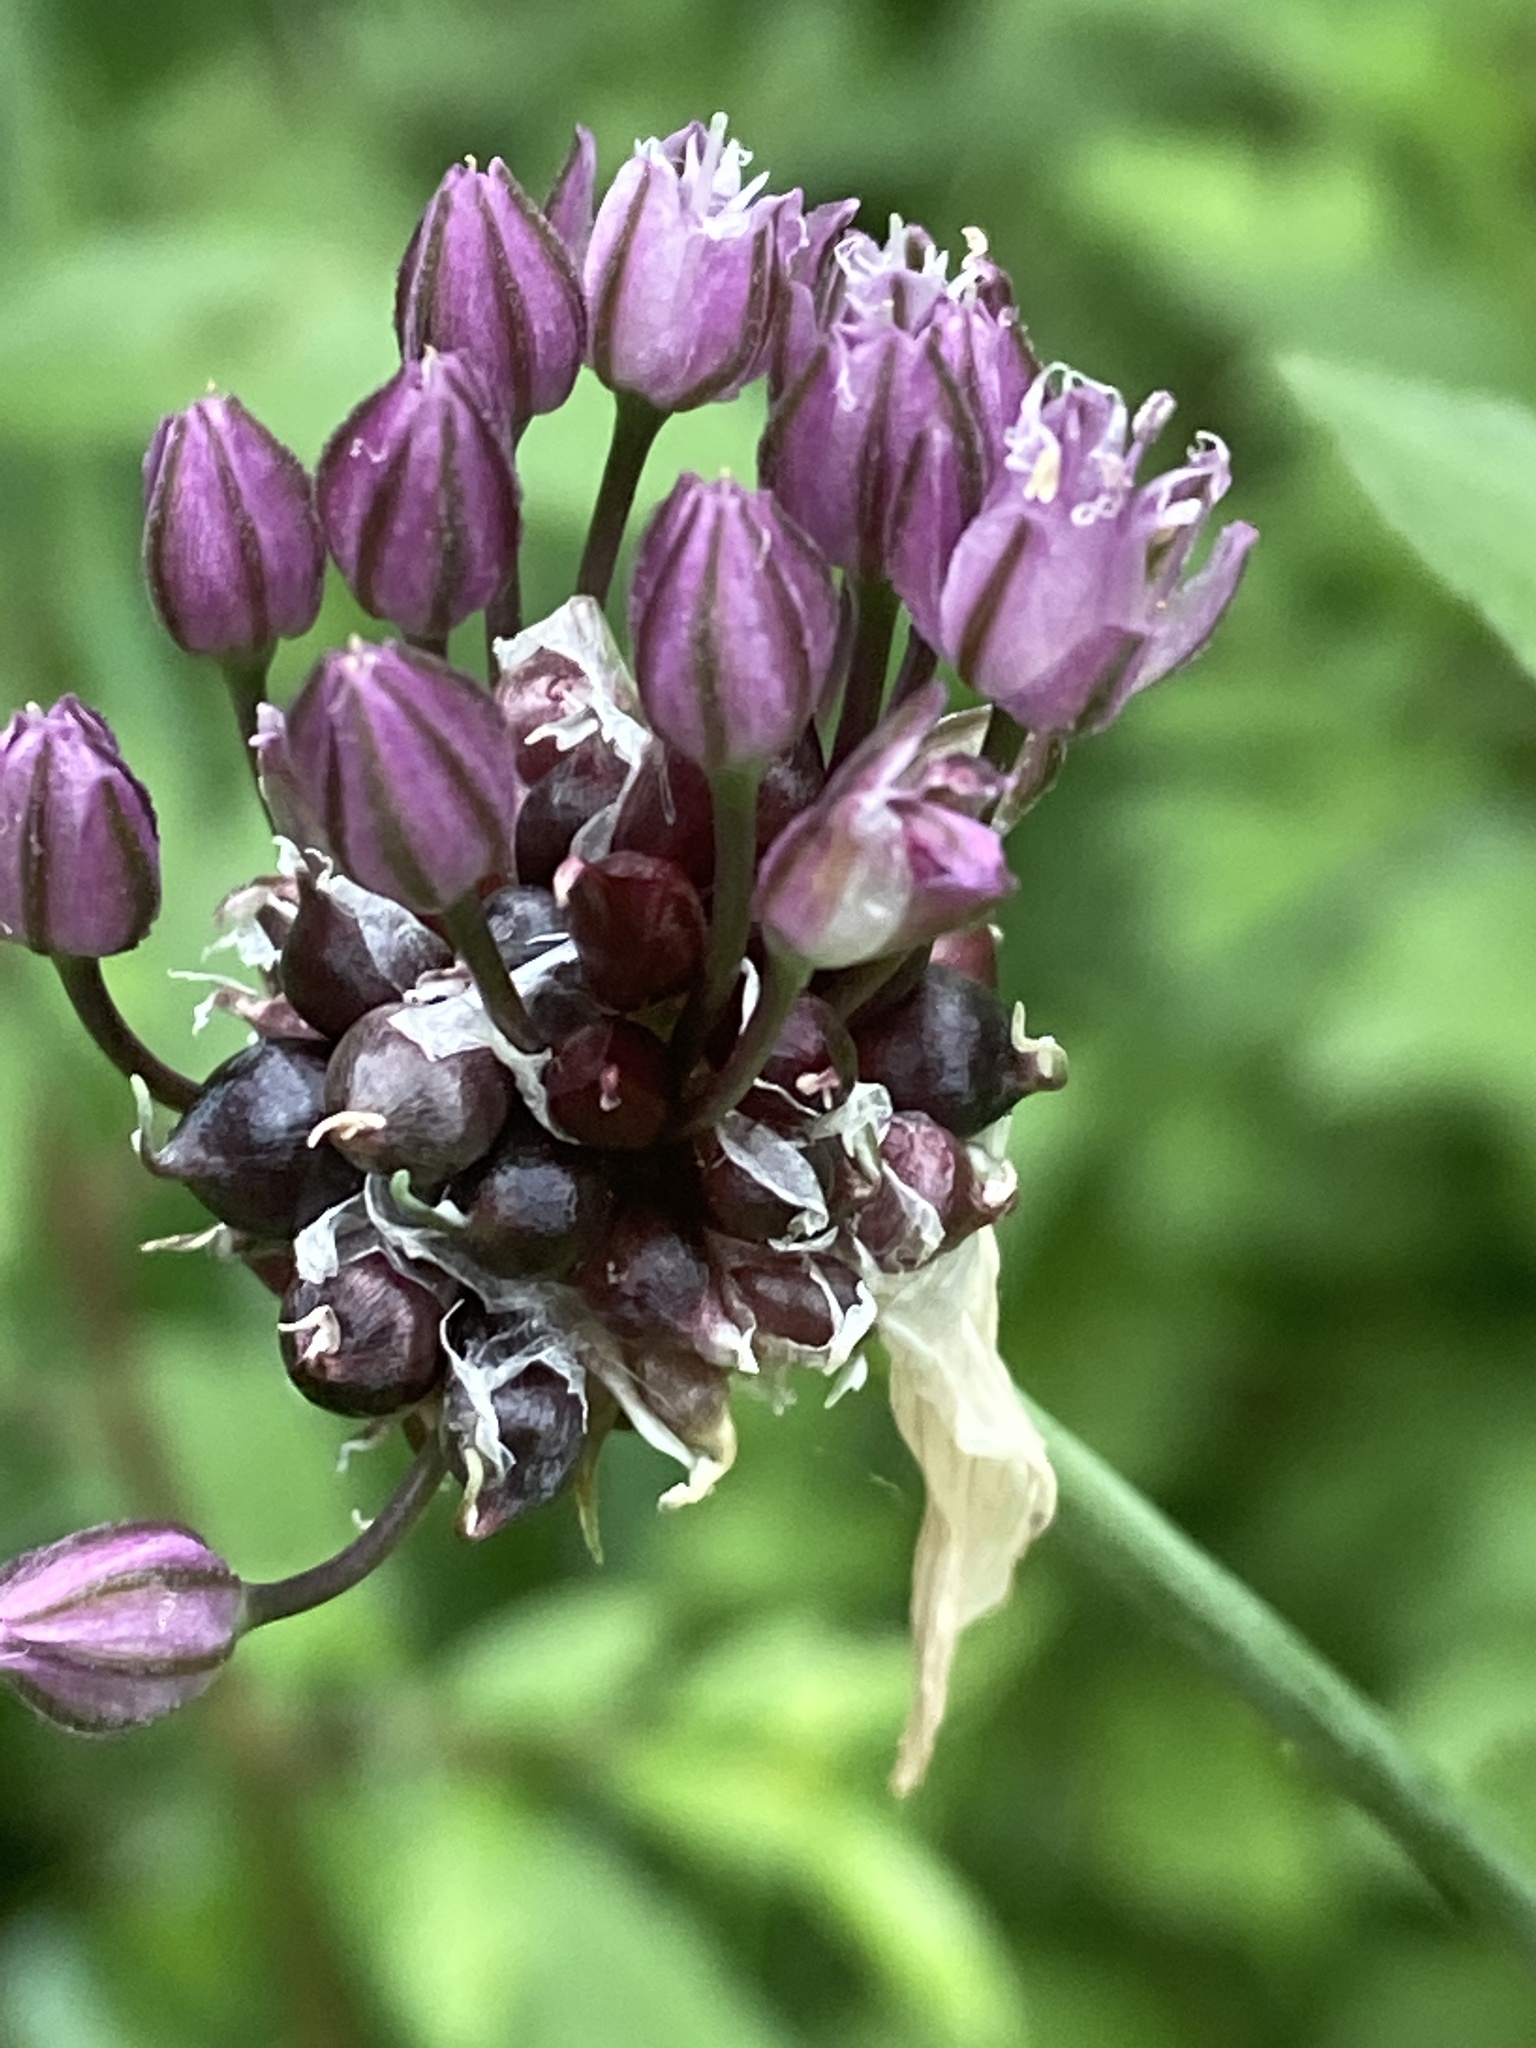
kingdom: Plantae
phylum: Tracheophyta
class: Liliopsida
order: Asparagales
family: Amaryllidaceae
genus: Allium
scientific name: Allium scorodoprasum
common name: Sand leek
